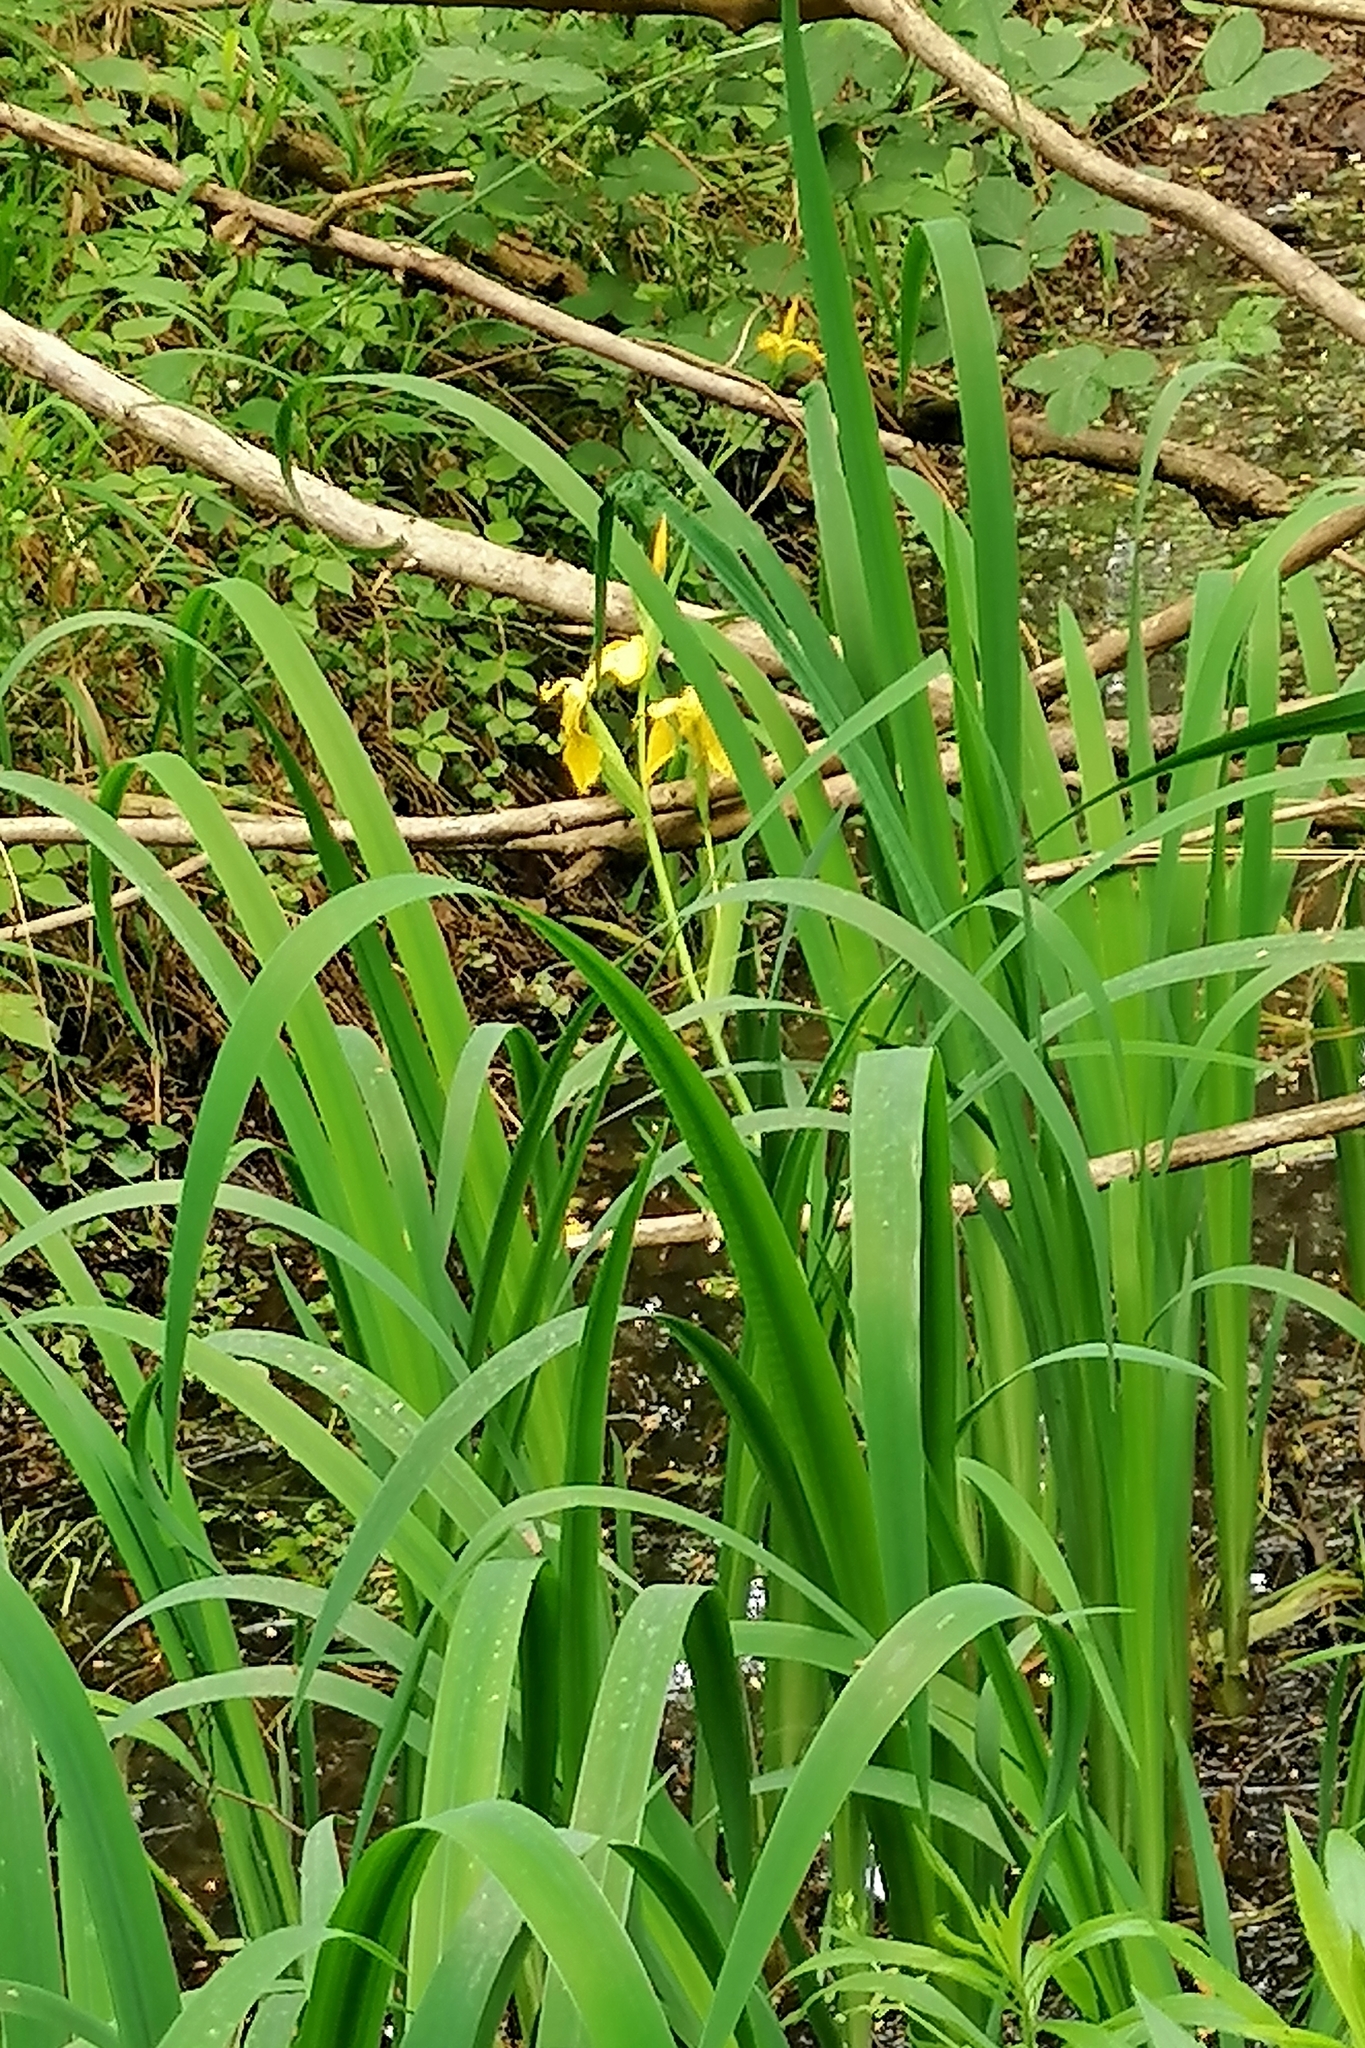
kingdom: Plantae
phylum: Tracheophyta
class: Liliopsida
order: Asparagales
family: Iridaceae
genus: Iris
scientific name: Iris pseudacorus
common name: Yellow flag
